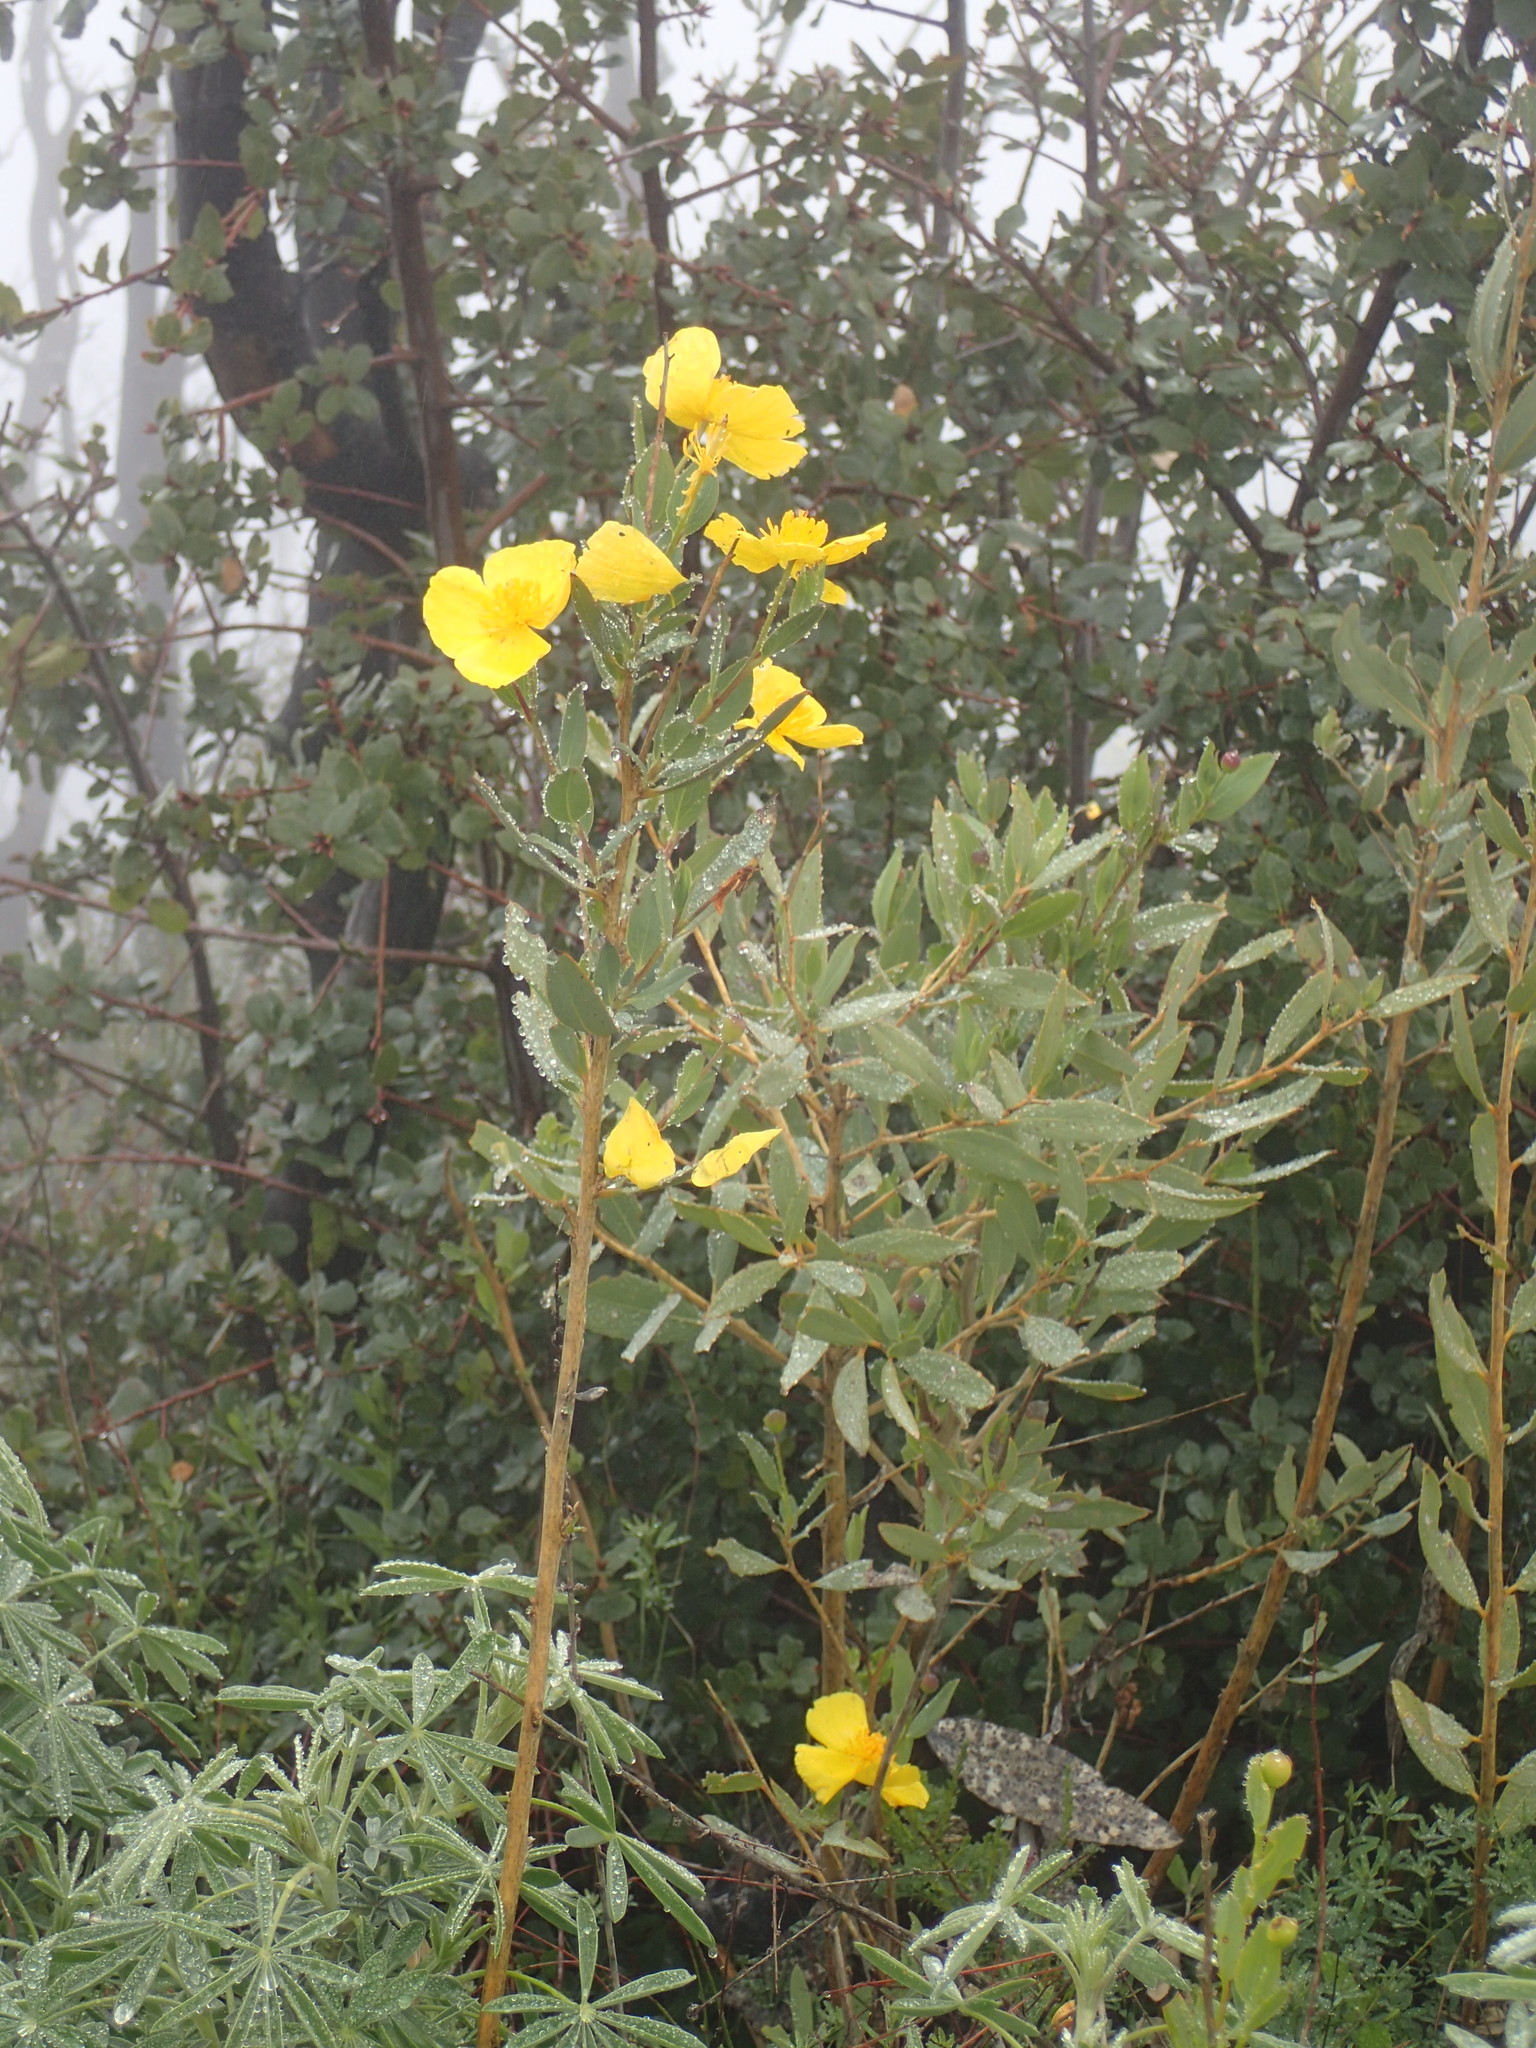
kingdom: Plantae
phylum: Tracheophyta
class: Magnoliopsida
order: Ranunculales
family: Papaveraceae
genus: Dendromecon
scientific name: Dendromecon rigida
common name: Tree poppy
